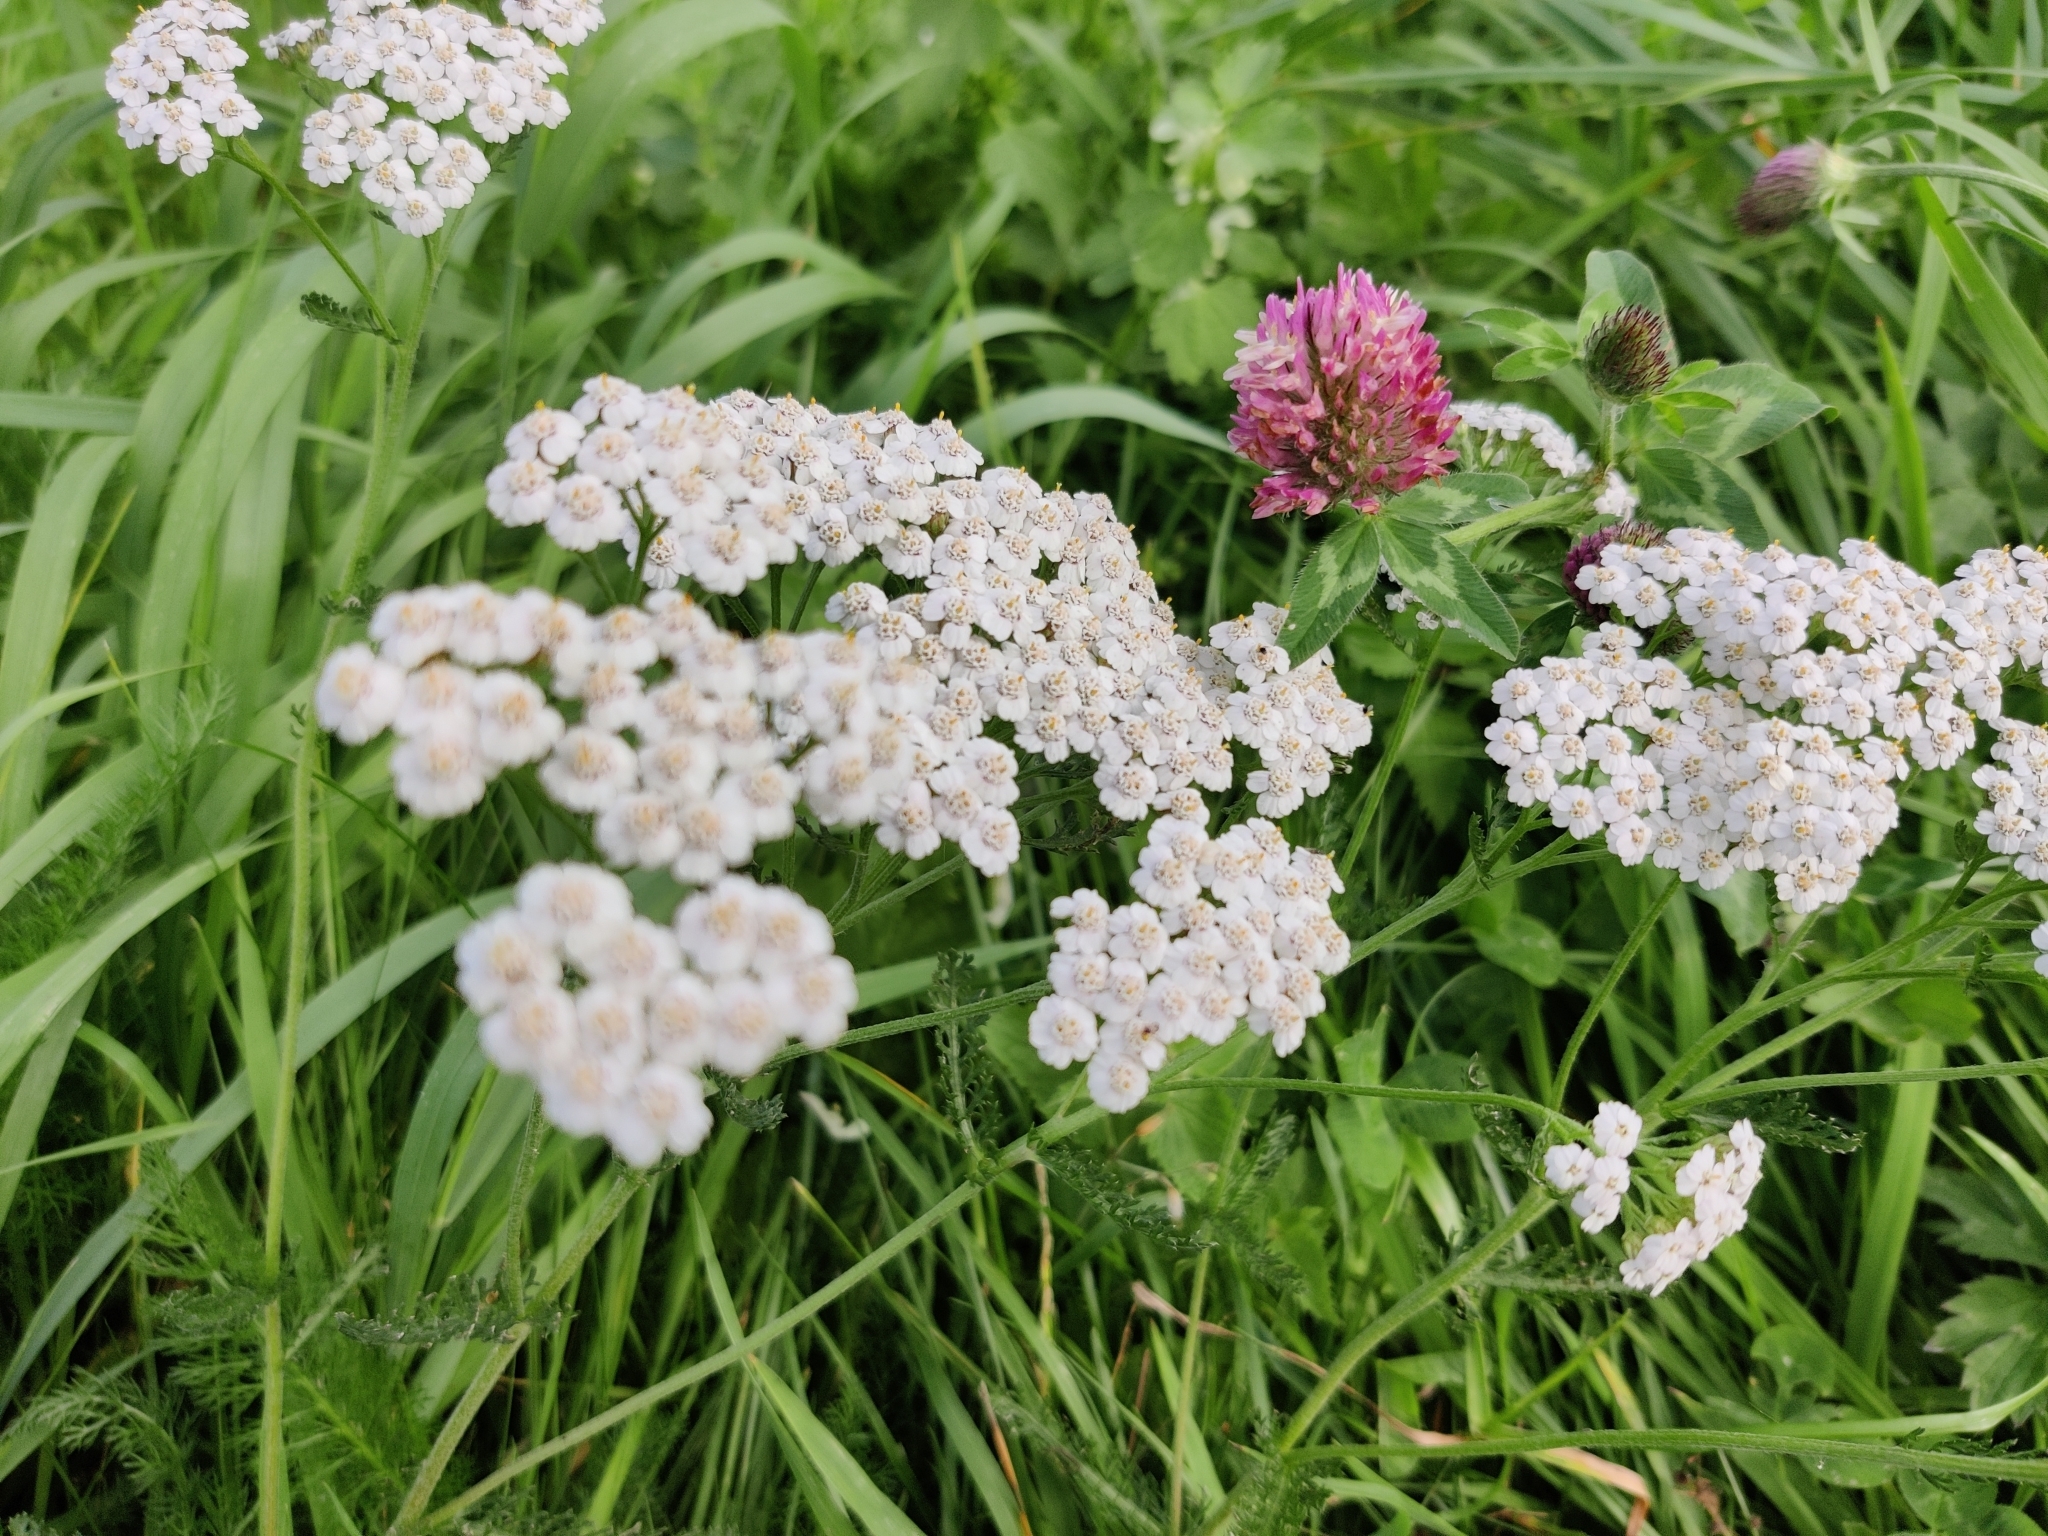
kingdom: Plantae
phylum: Tracheophyta
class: Magnoliopsida
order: Asterales
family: Asteraceae
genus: Achillea
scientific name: Achillea millefolium
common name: Yarrow
